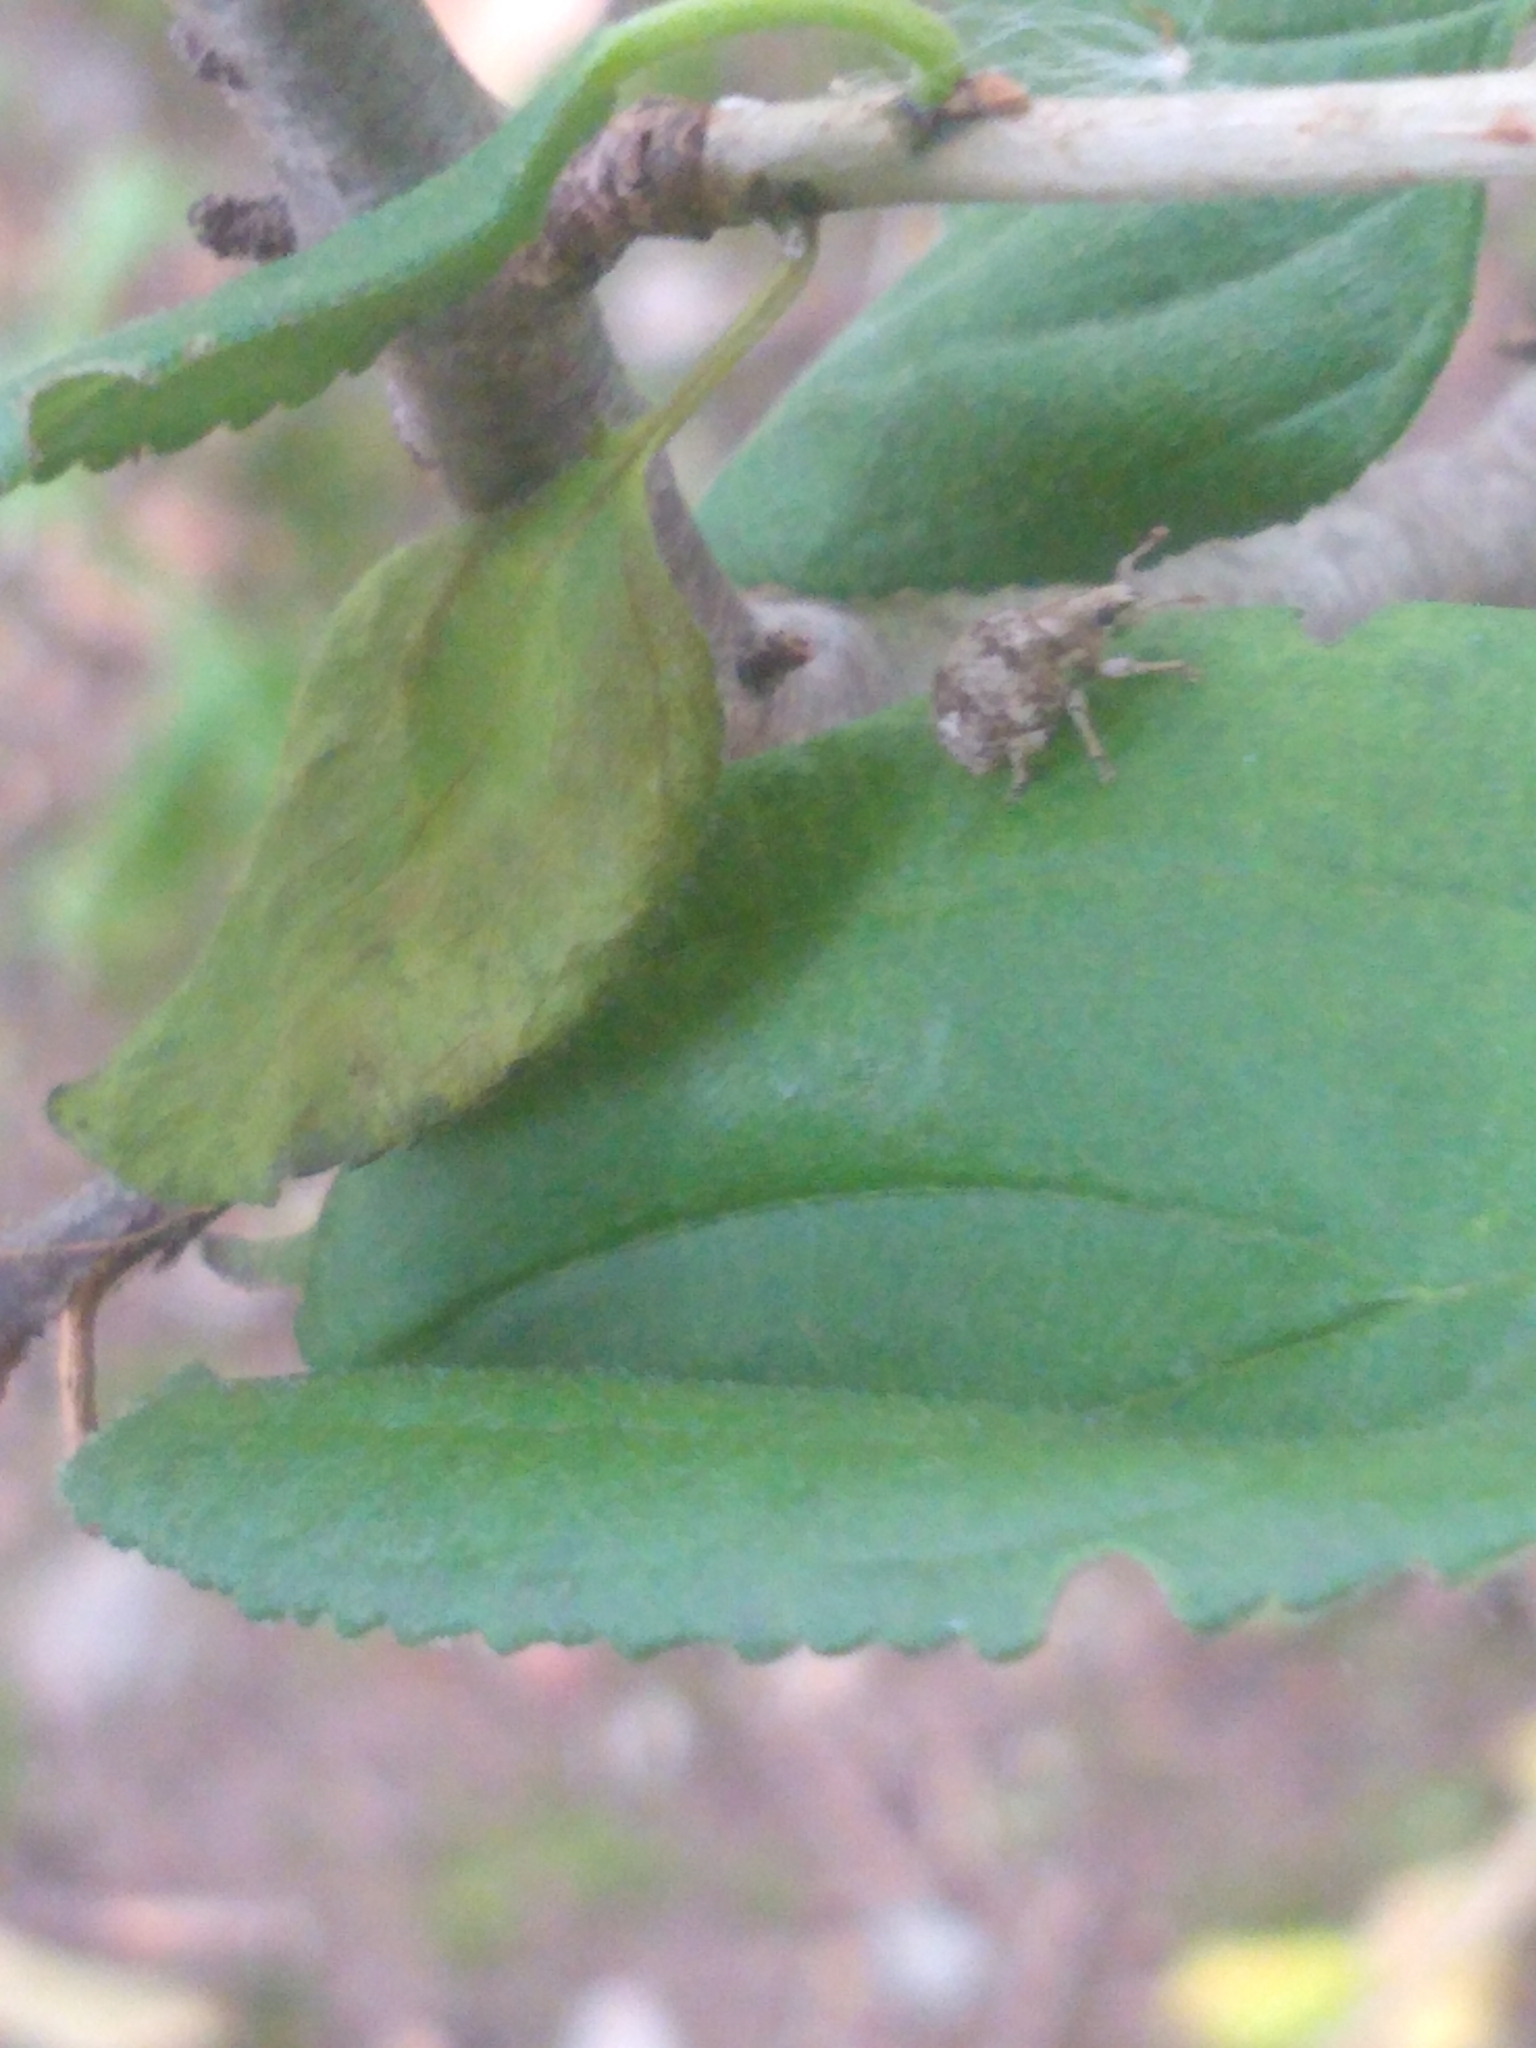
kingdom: Animalia
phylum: Arthropoda
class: Insecta
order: Coleoptera
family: Curculionidae
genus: Pseudocneorhinus
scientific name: Pseudocneorhinus bifasciatus
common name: Two-banded japanese weevil
